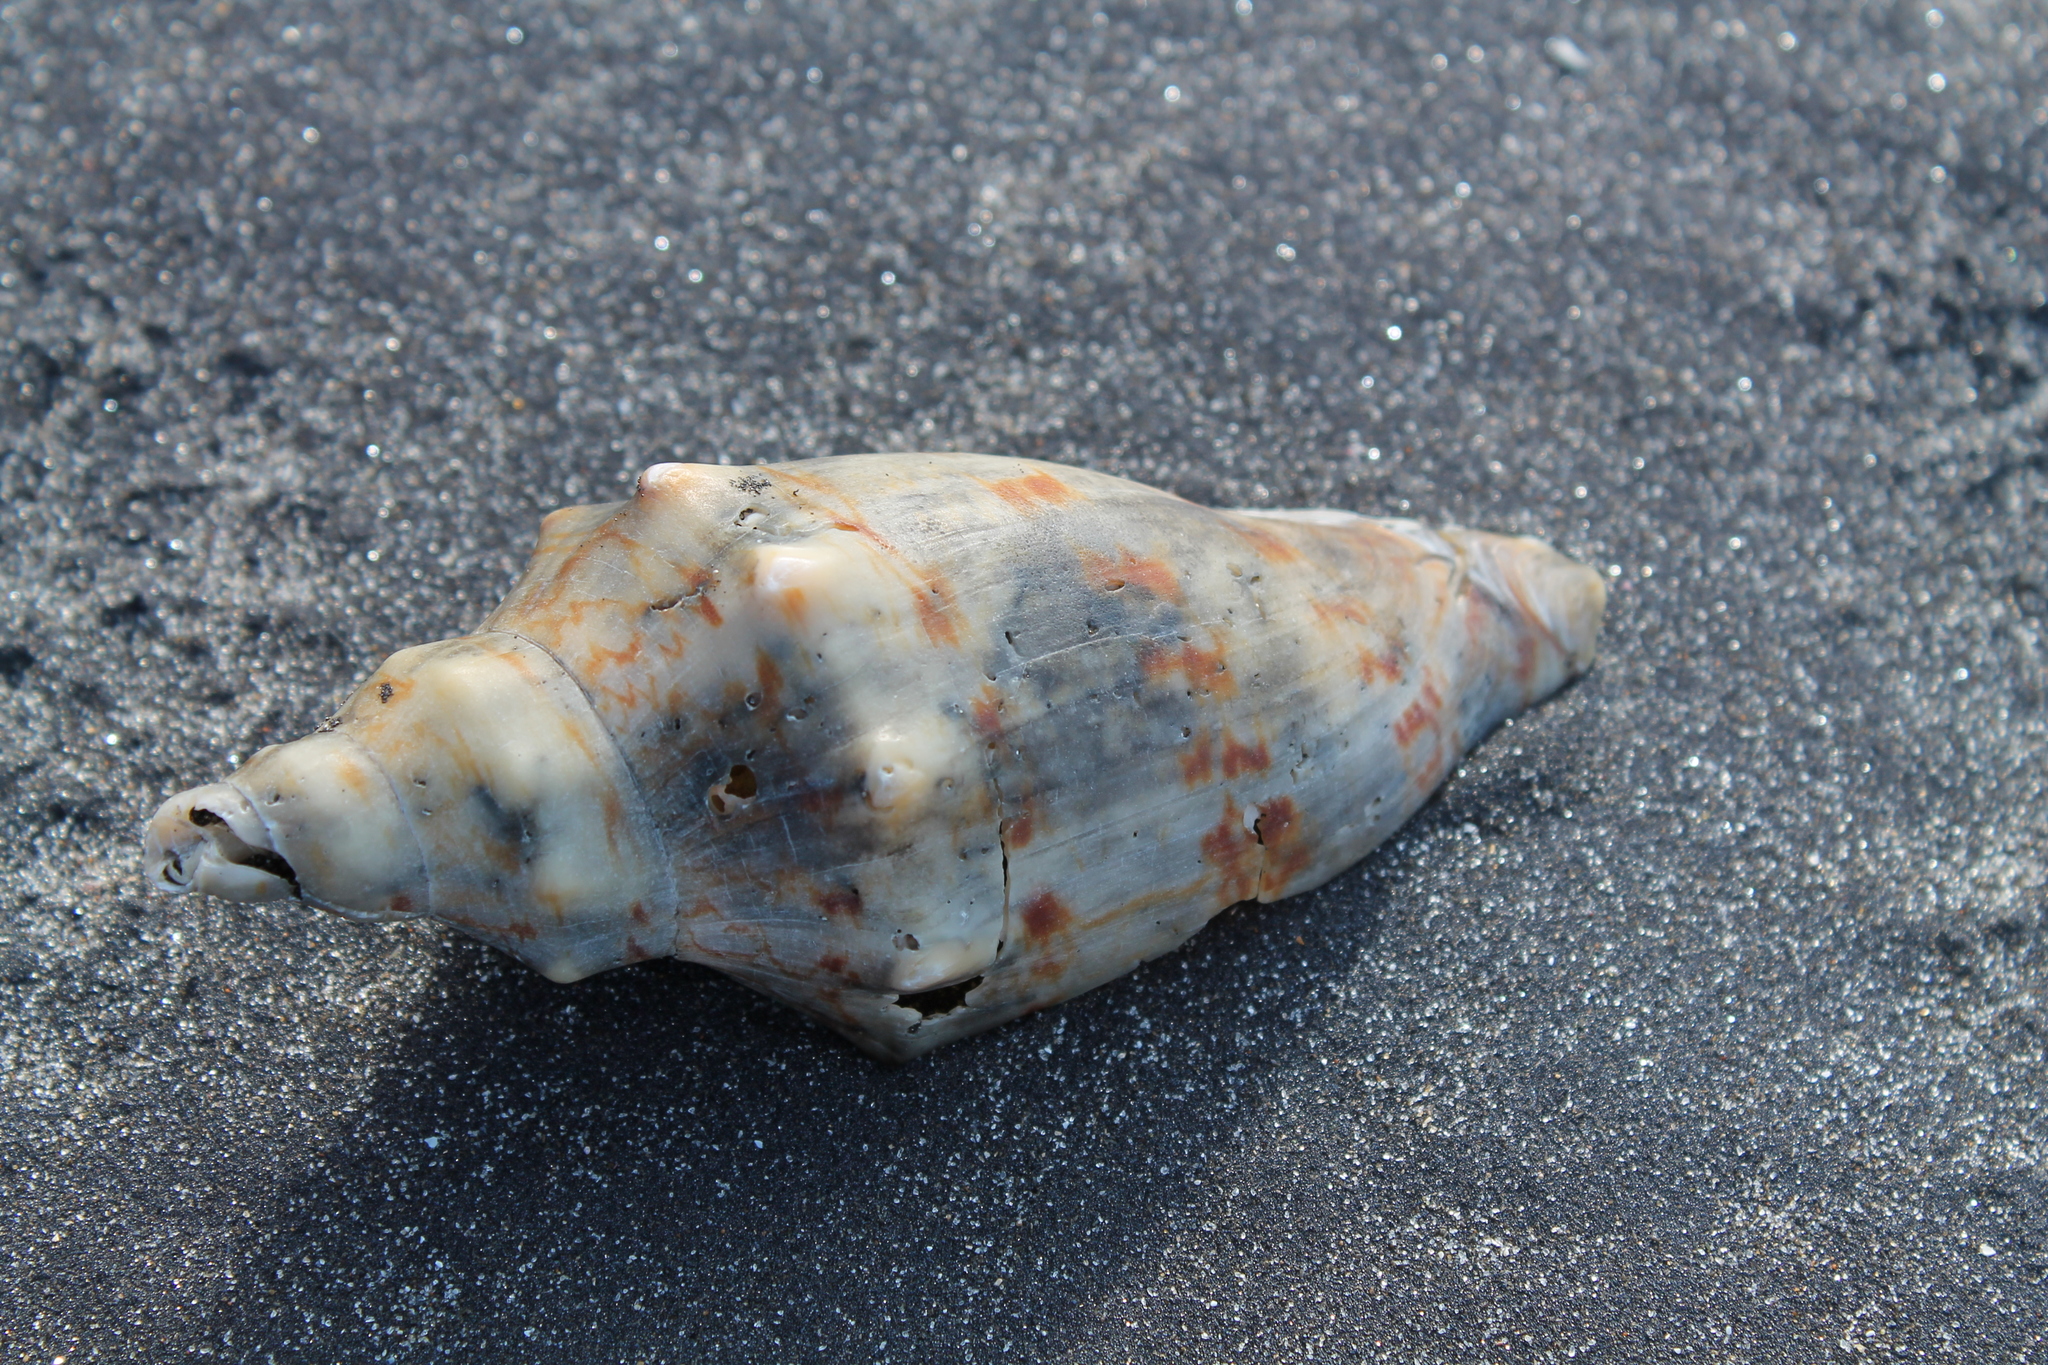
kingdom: Animalia
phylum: Mollusca
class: Gastropoda
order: Neogastropoda
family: Volutidae
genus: Alcithoe
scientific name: Alcithoe arabica
